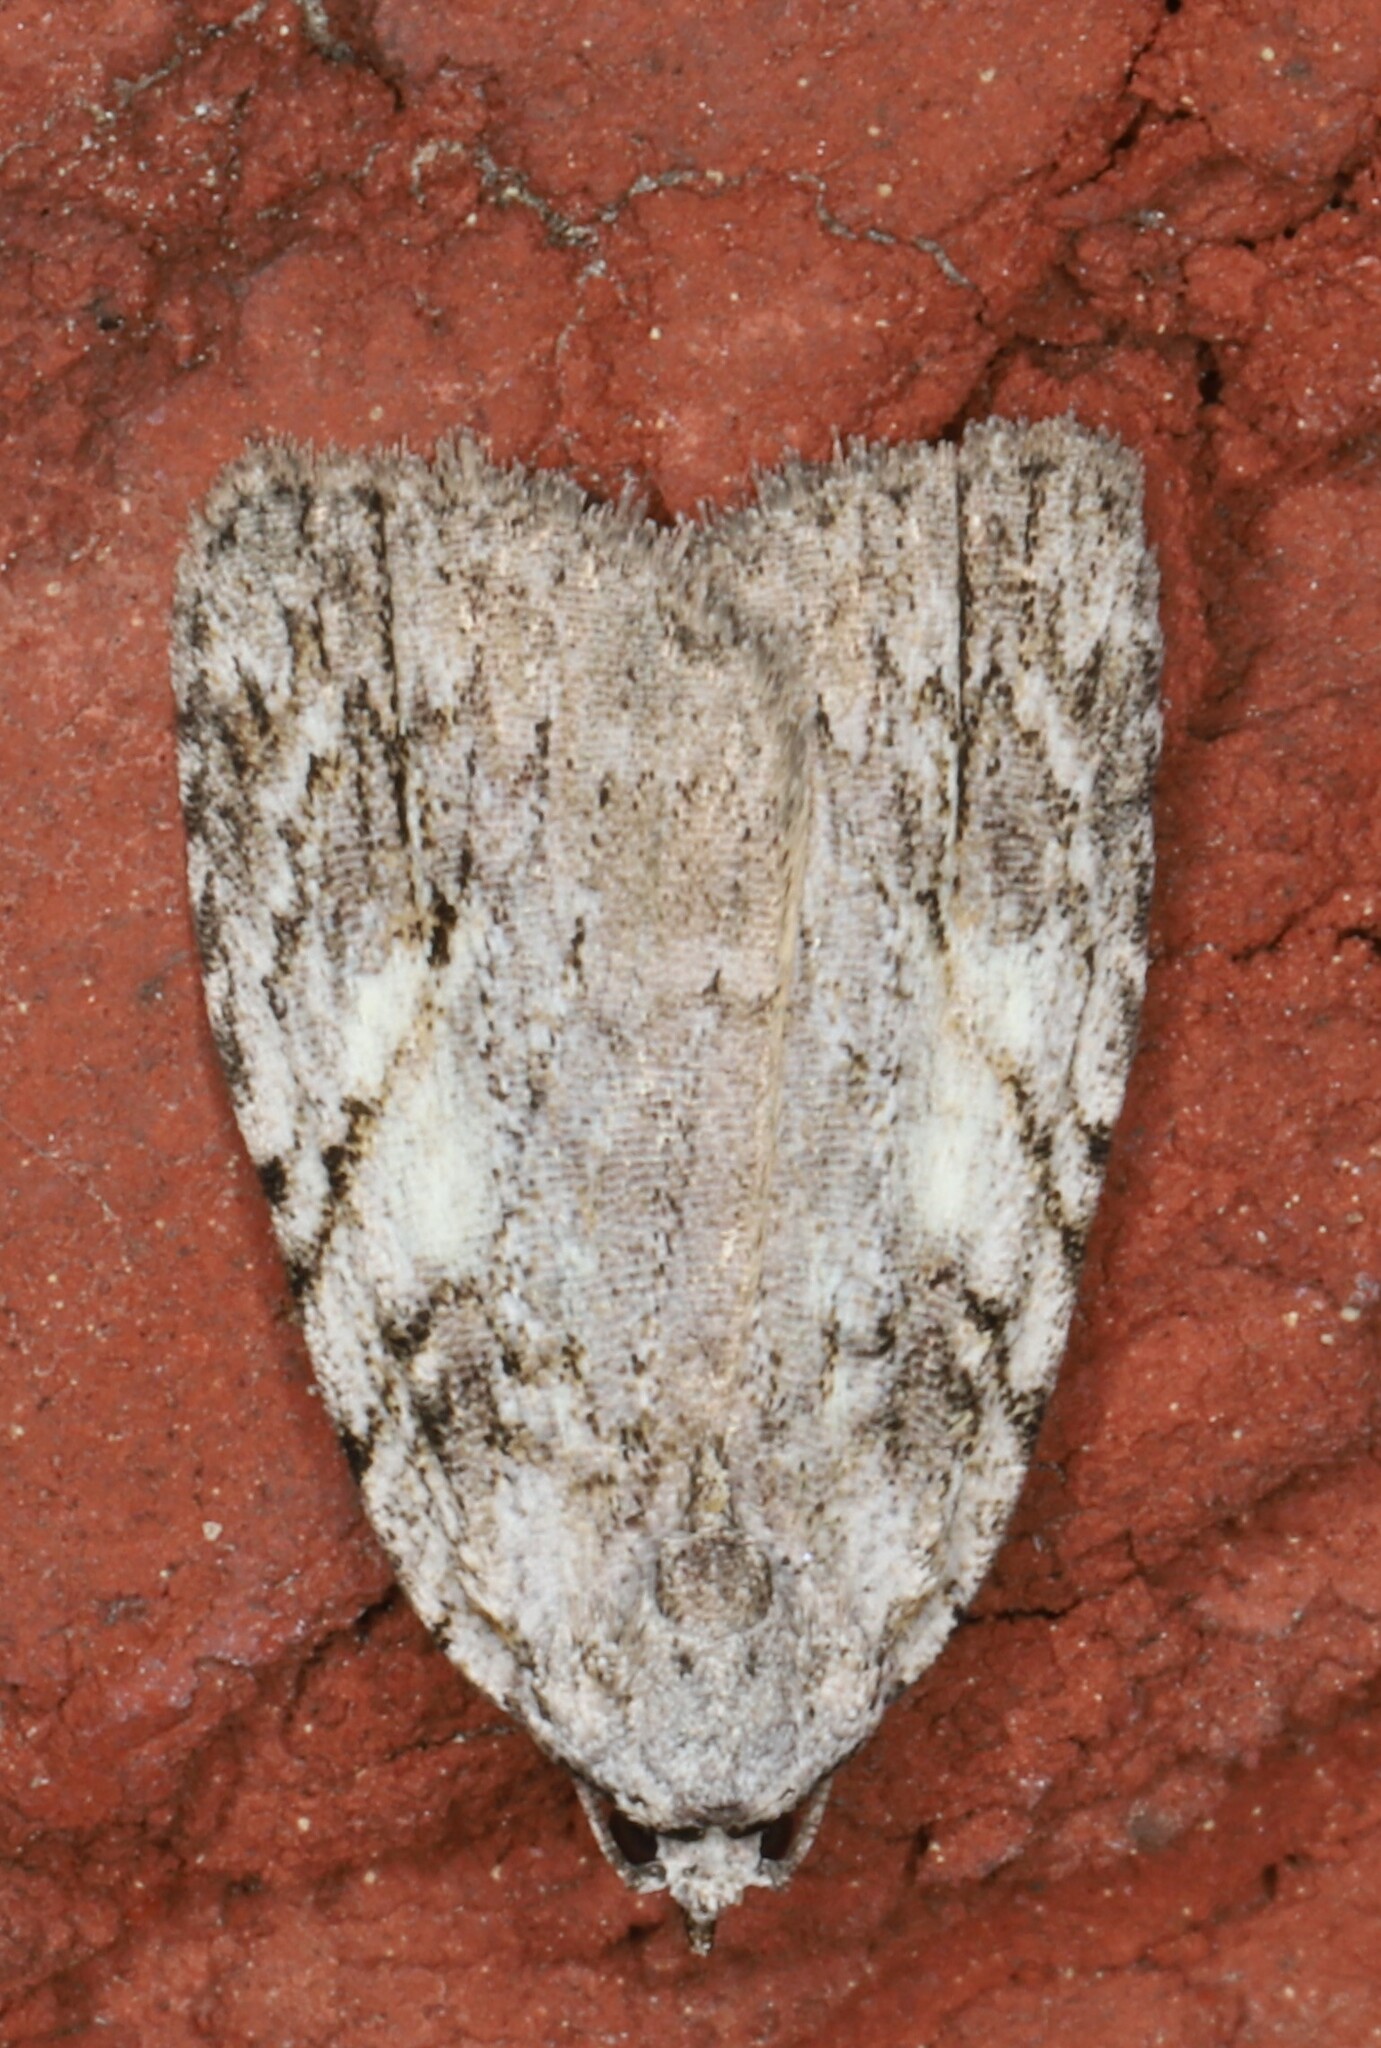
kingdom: Animalia
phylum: Arthropoda
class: Insecta
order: Lepidoptera
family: Noctuidae
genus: Balsa
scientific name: Balsa labecula
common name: White-blotched balsa moth
